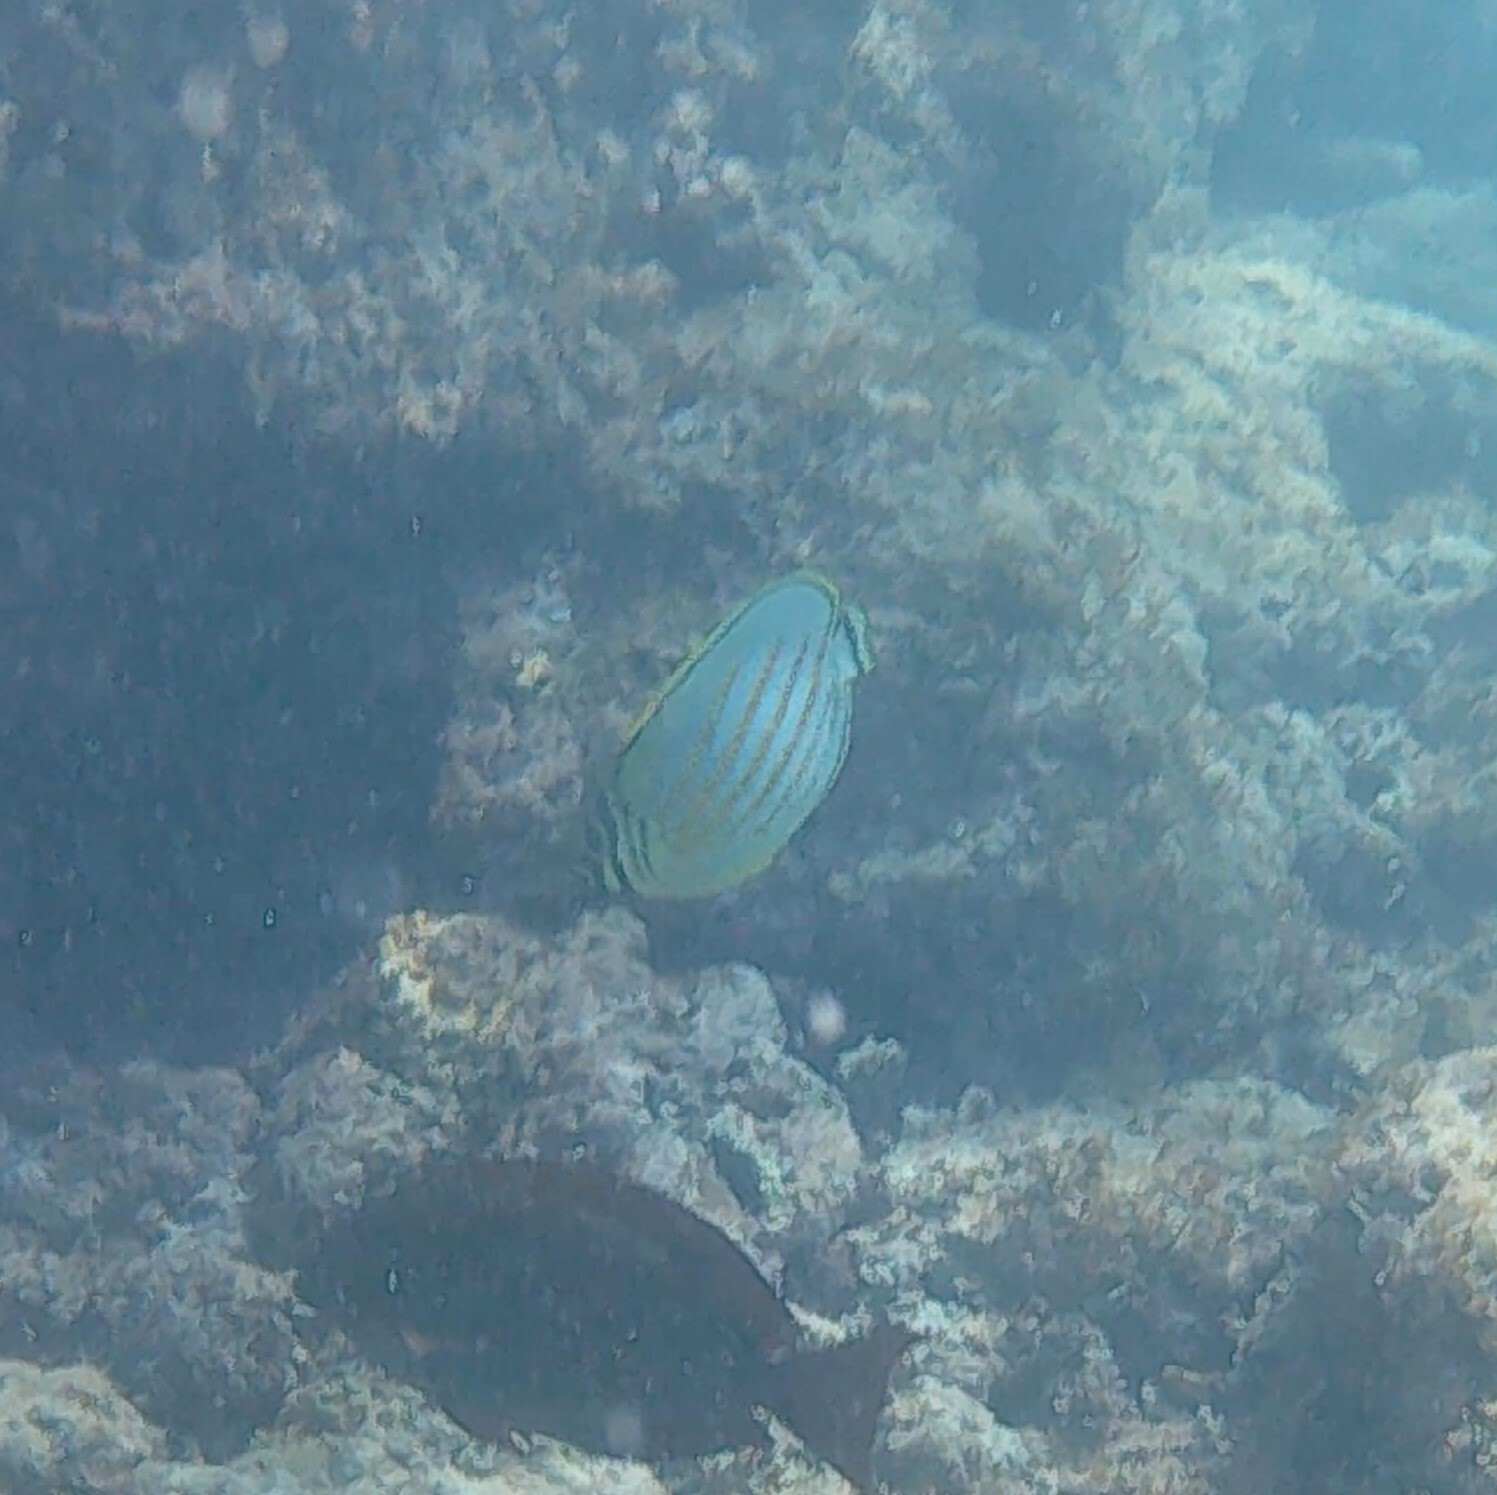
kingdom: Animalia
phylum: Chordata
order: Perciformes
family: Chaetodontidae
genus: Chaetodon
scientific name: Chaetodon ornatissimus
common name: Ornate butterflyfish
